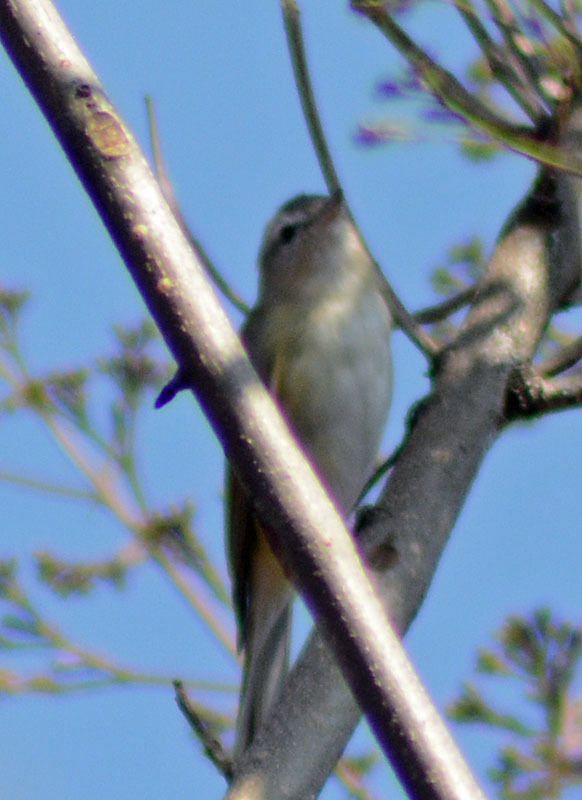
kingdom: Animalia
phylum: Chordata
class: Aves
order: Passeriformes
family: Vireonidae
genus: Vireo
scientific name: Vireo gilvus
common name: Warbling vireo
